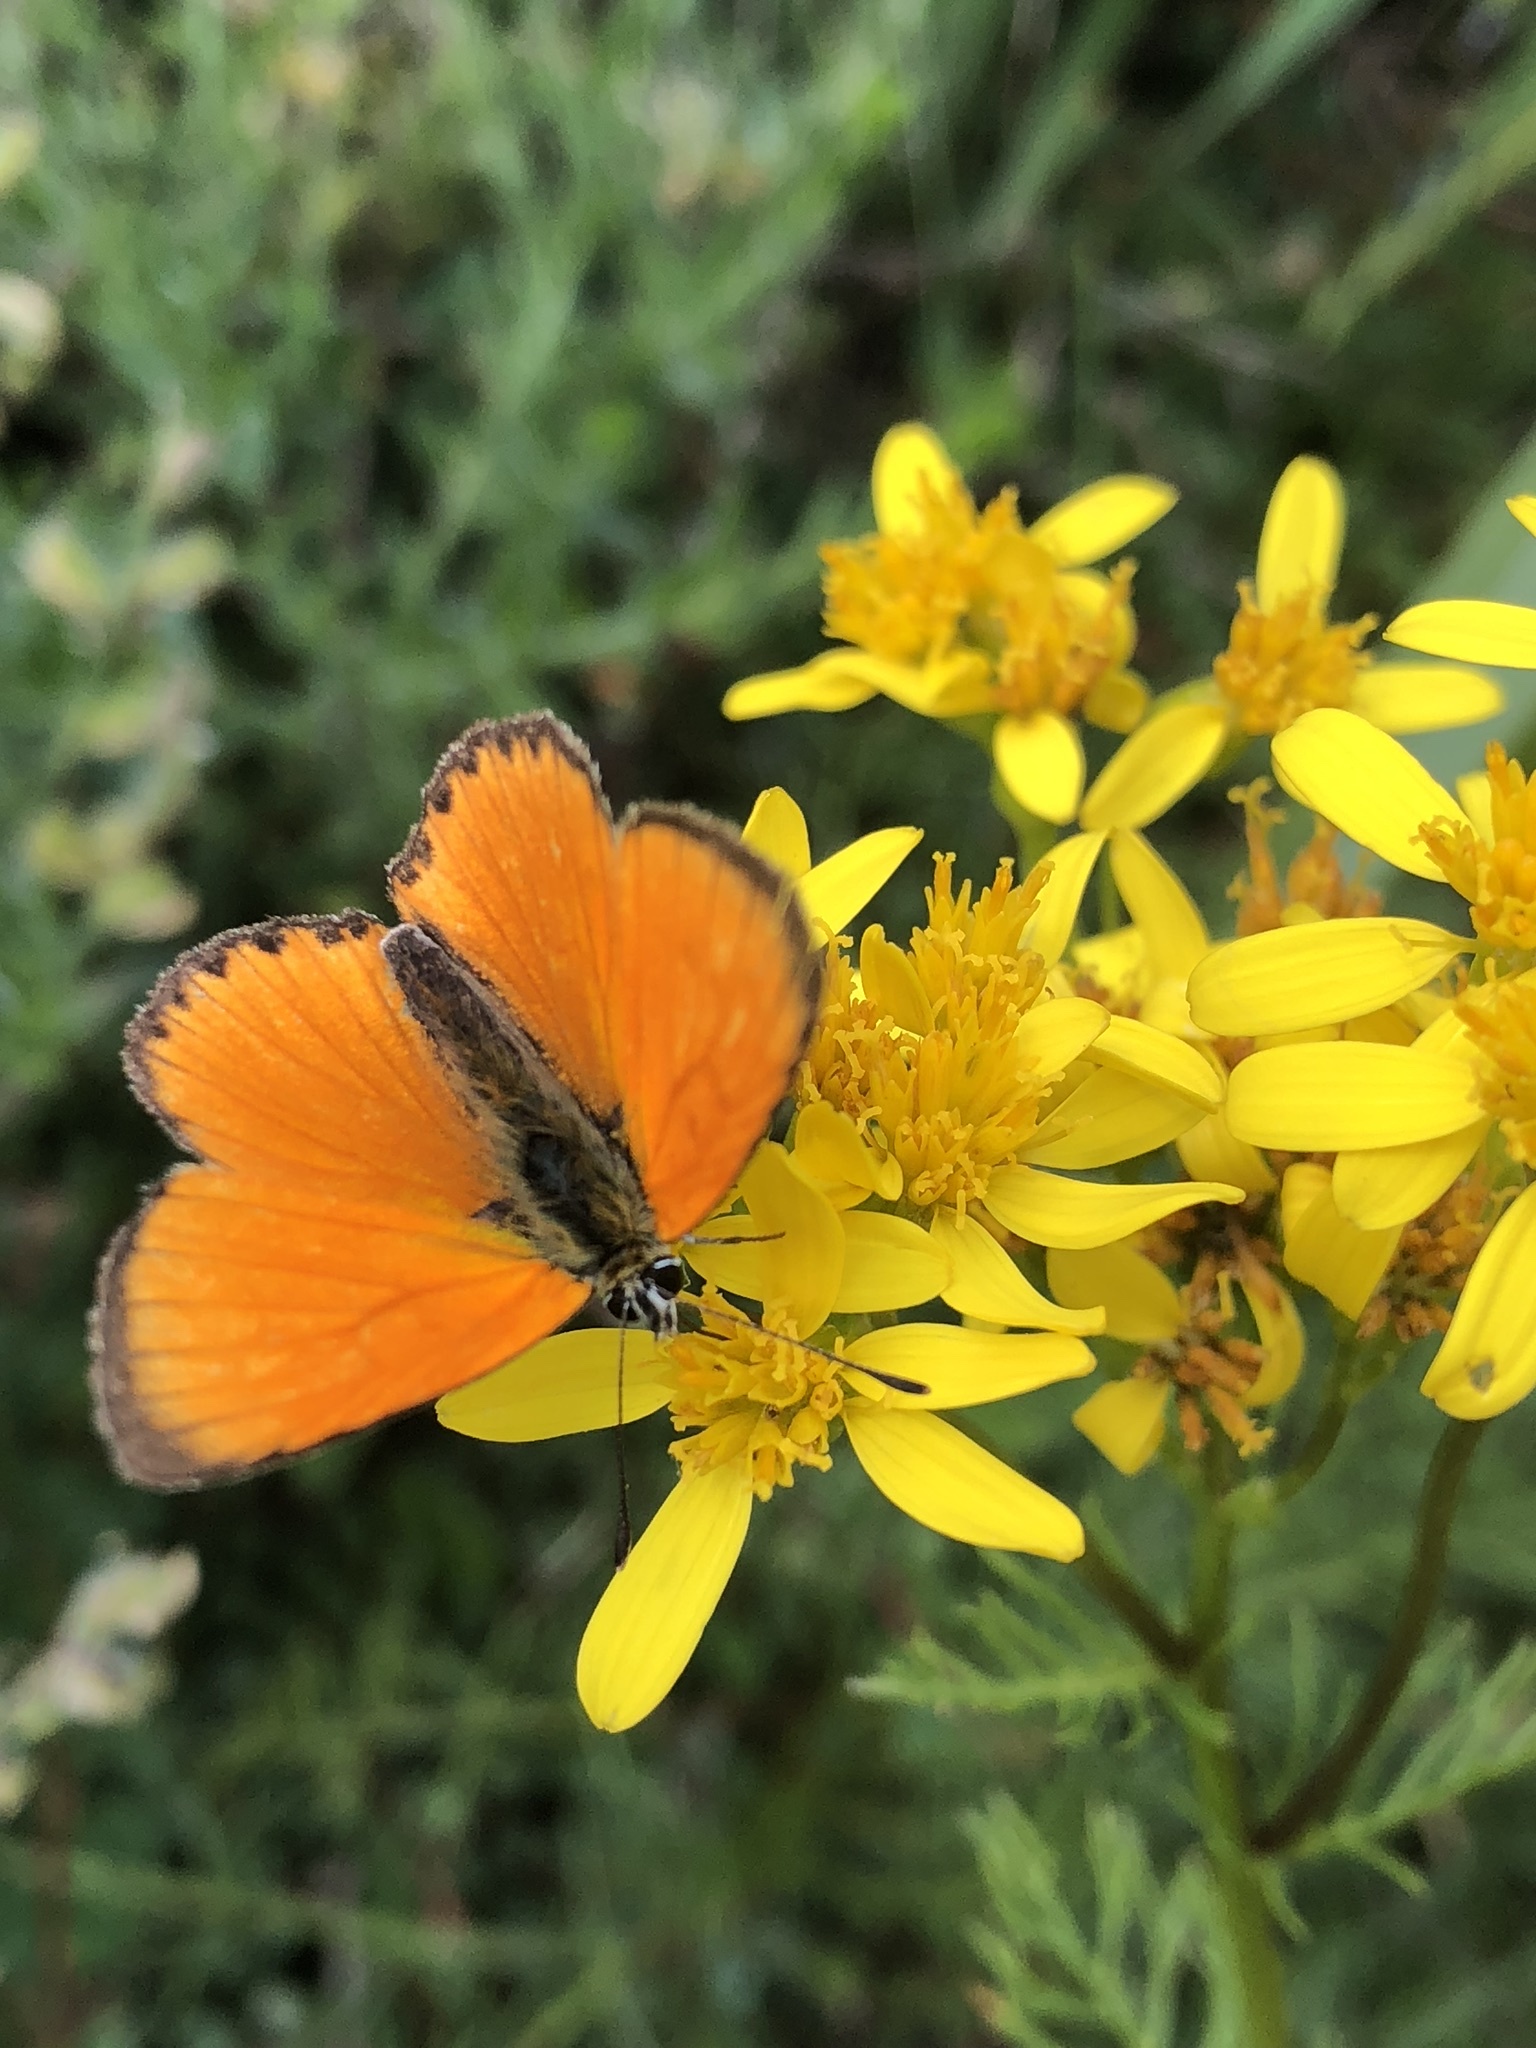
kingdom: Animalia
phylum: Arthropoda
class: Insecta
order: Lepidoptera
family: Lycaenidae
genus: Lycaena
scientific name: Lycaena virgaureae
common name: Scarce copper
